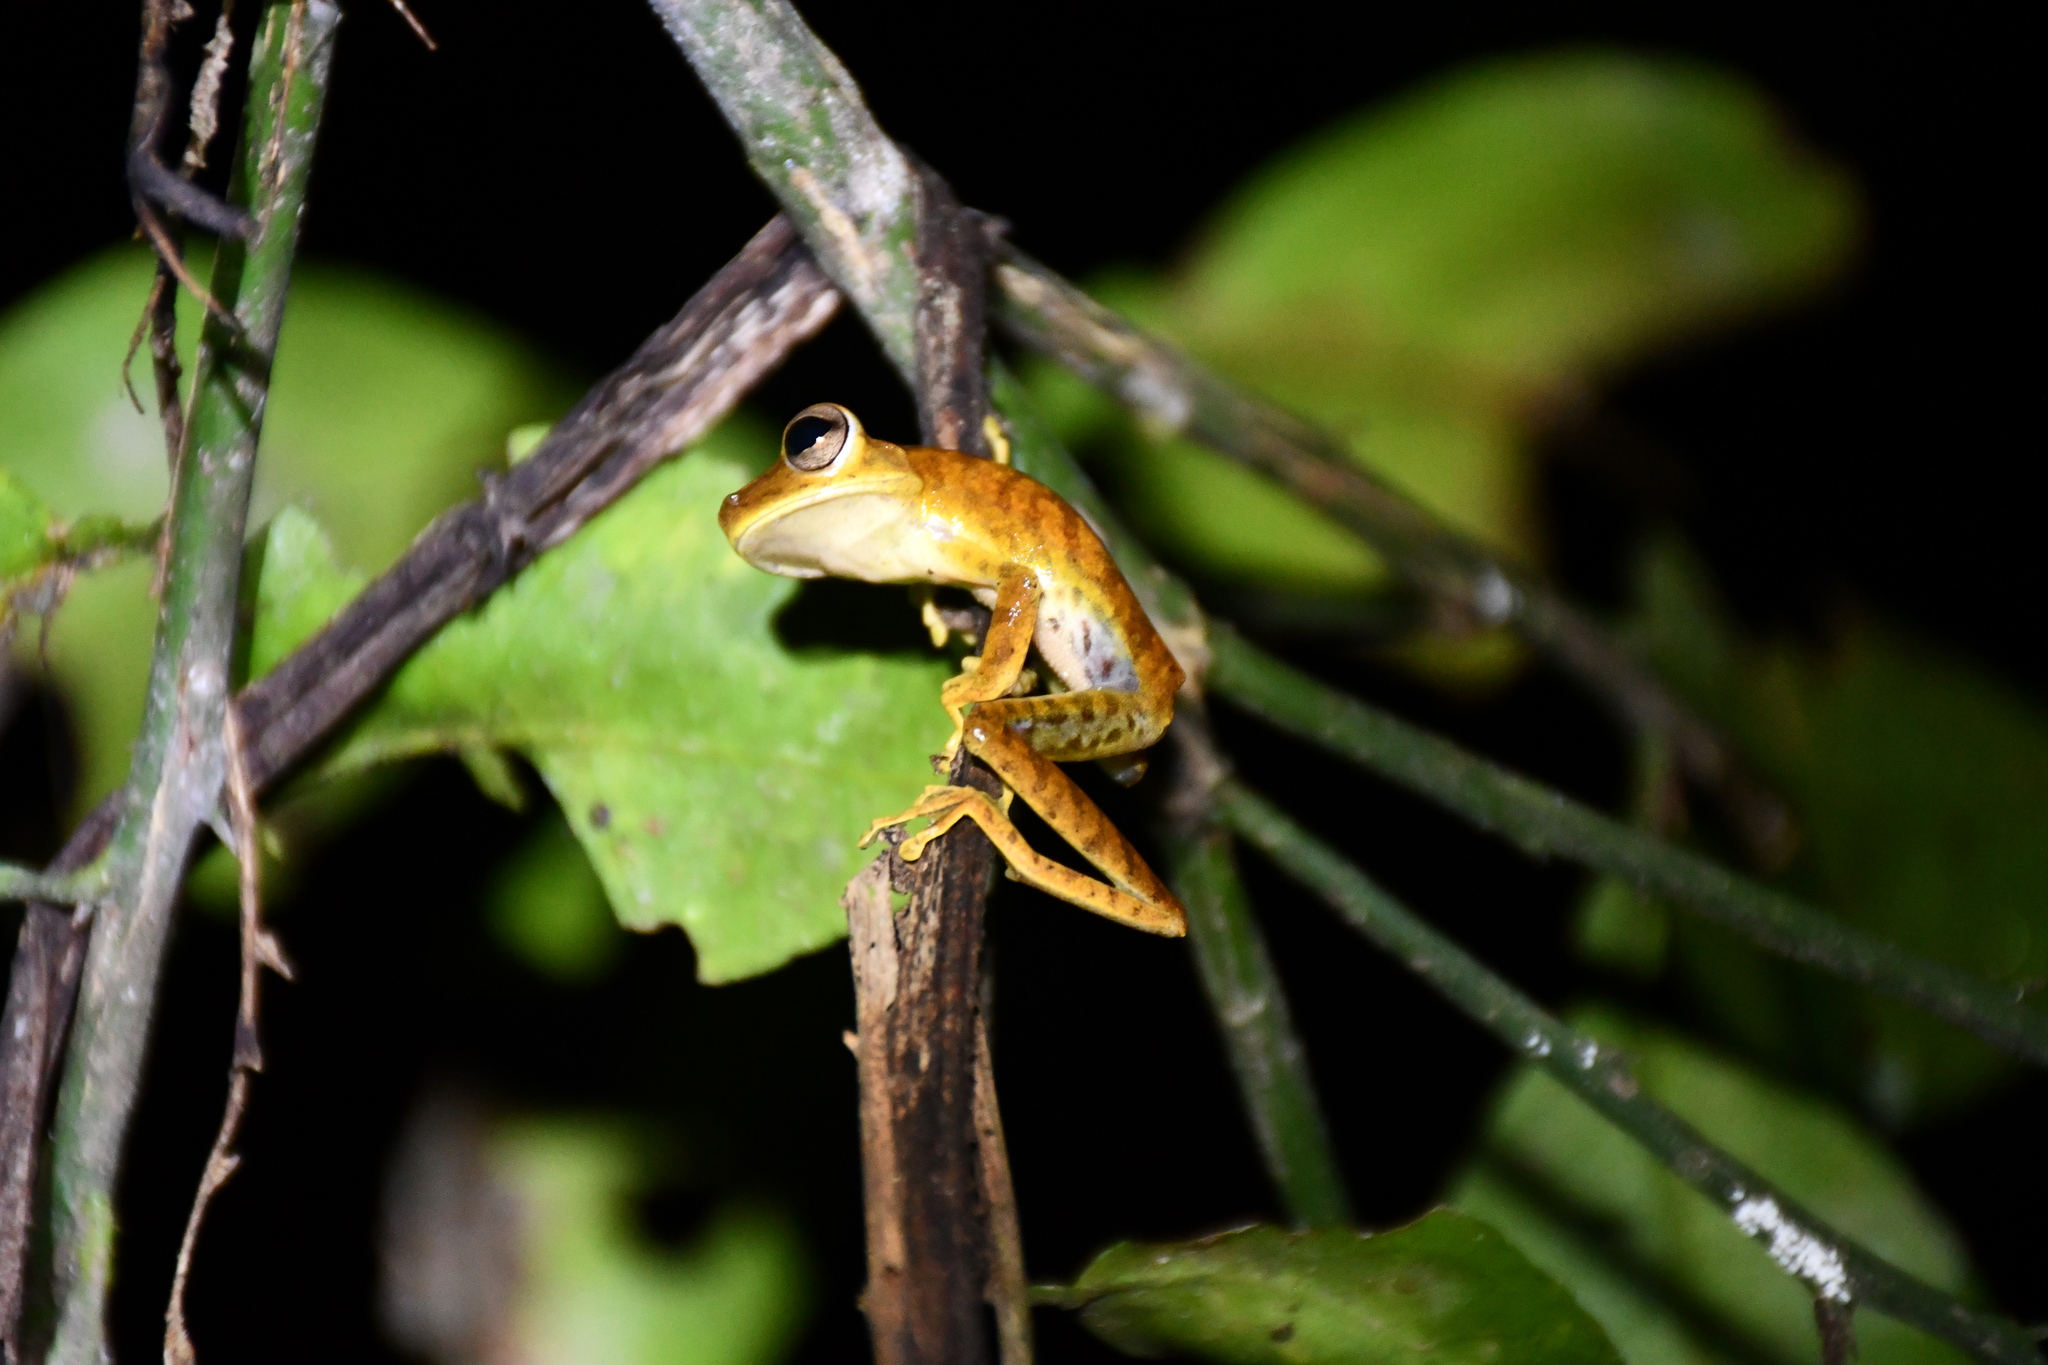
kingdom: Animalia
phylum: Chordata
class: Amphibia
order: Anura
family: Hylidae
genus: Boana
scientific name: Boana steinbachi
